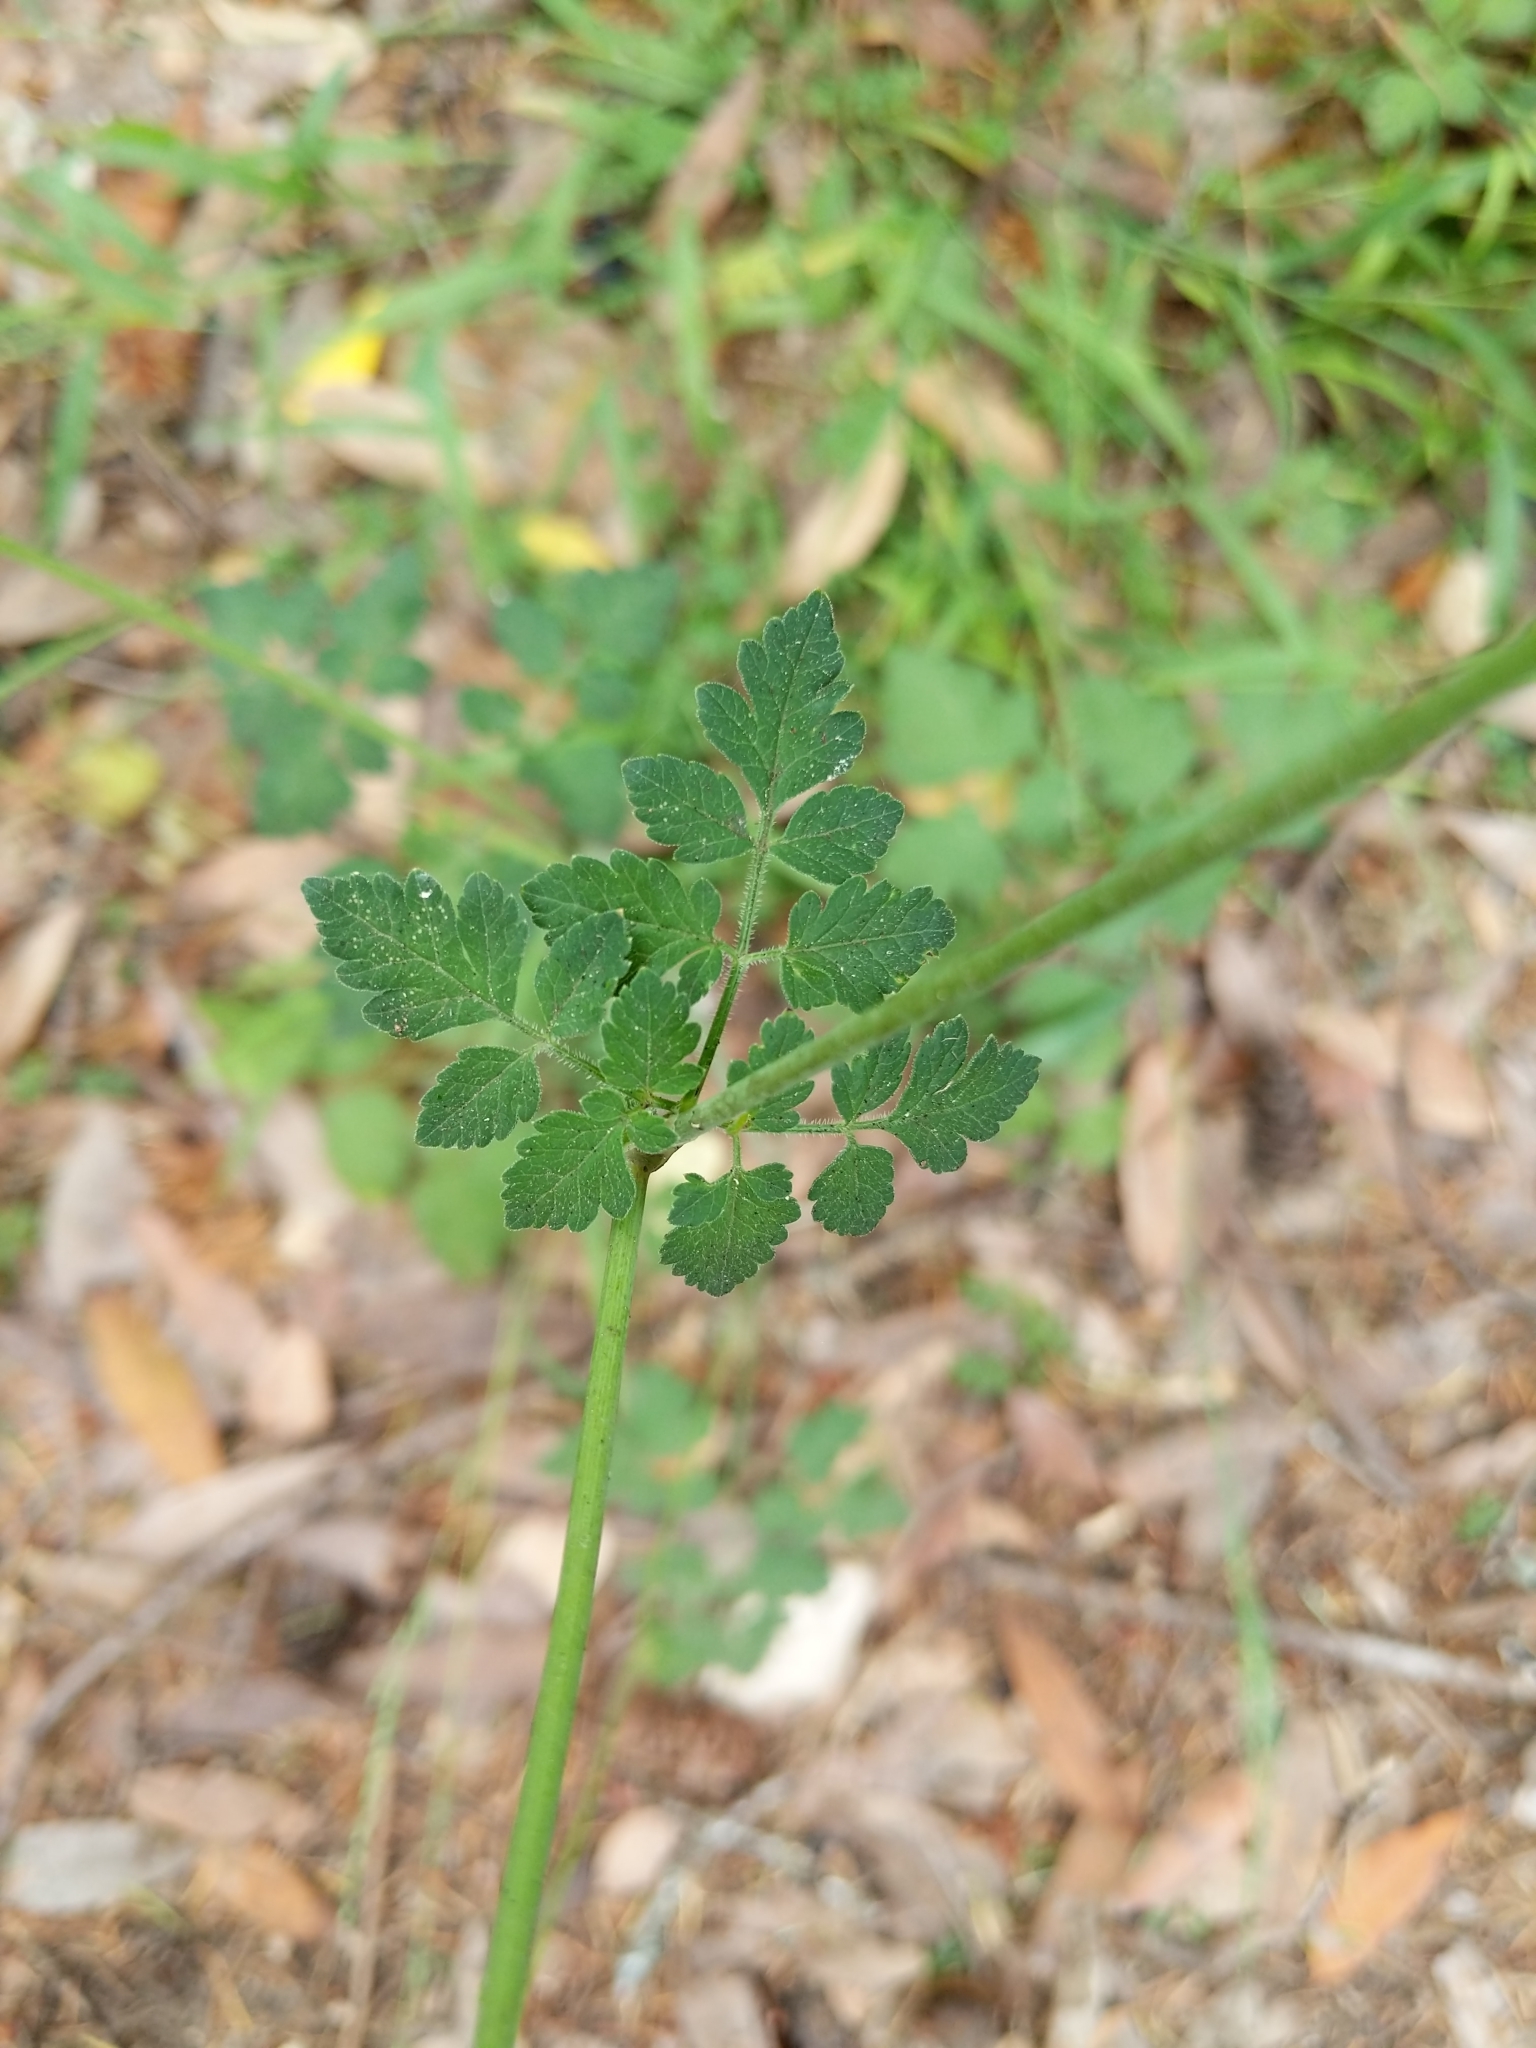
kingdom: Plantae
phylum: Tracheophyta
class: Magnoliopsida
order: Apiales
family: Apiaceae
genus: Osmorhiza
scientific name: Osmorhiza berteroi
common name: Mountain sweet cicely
